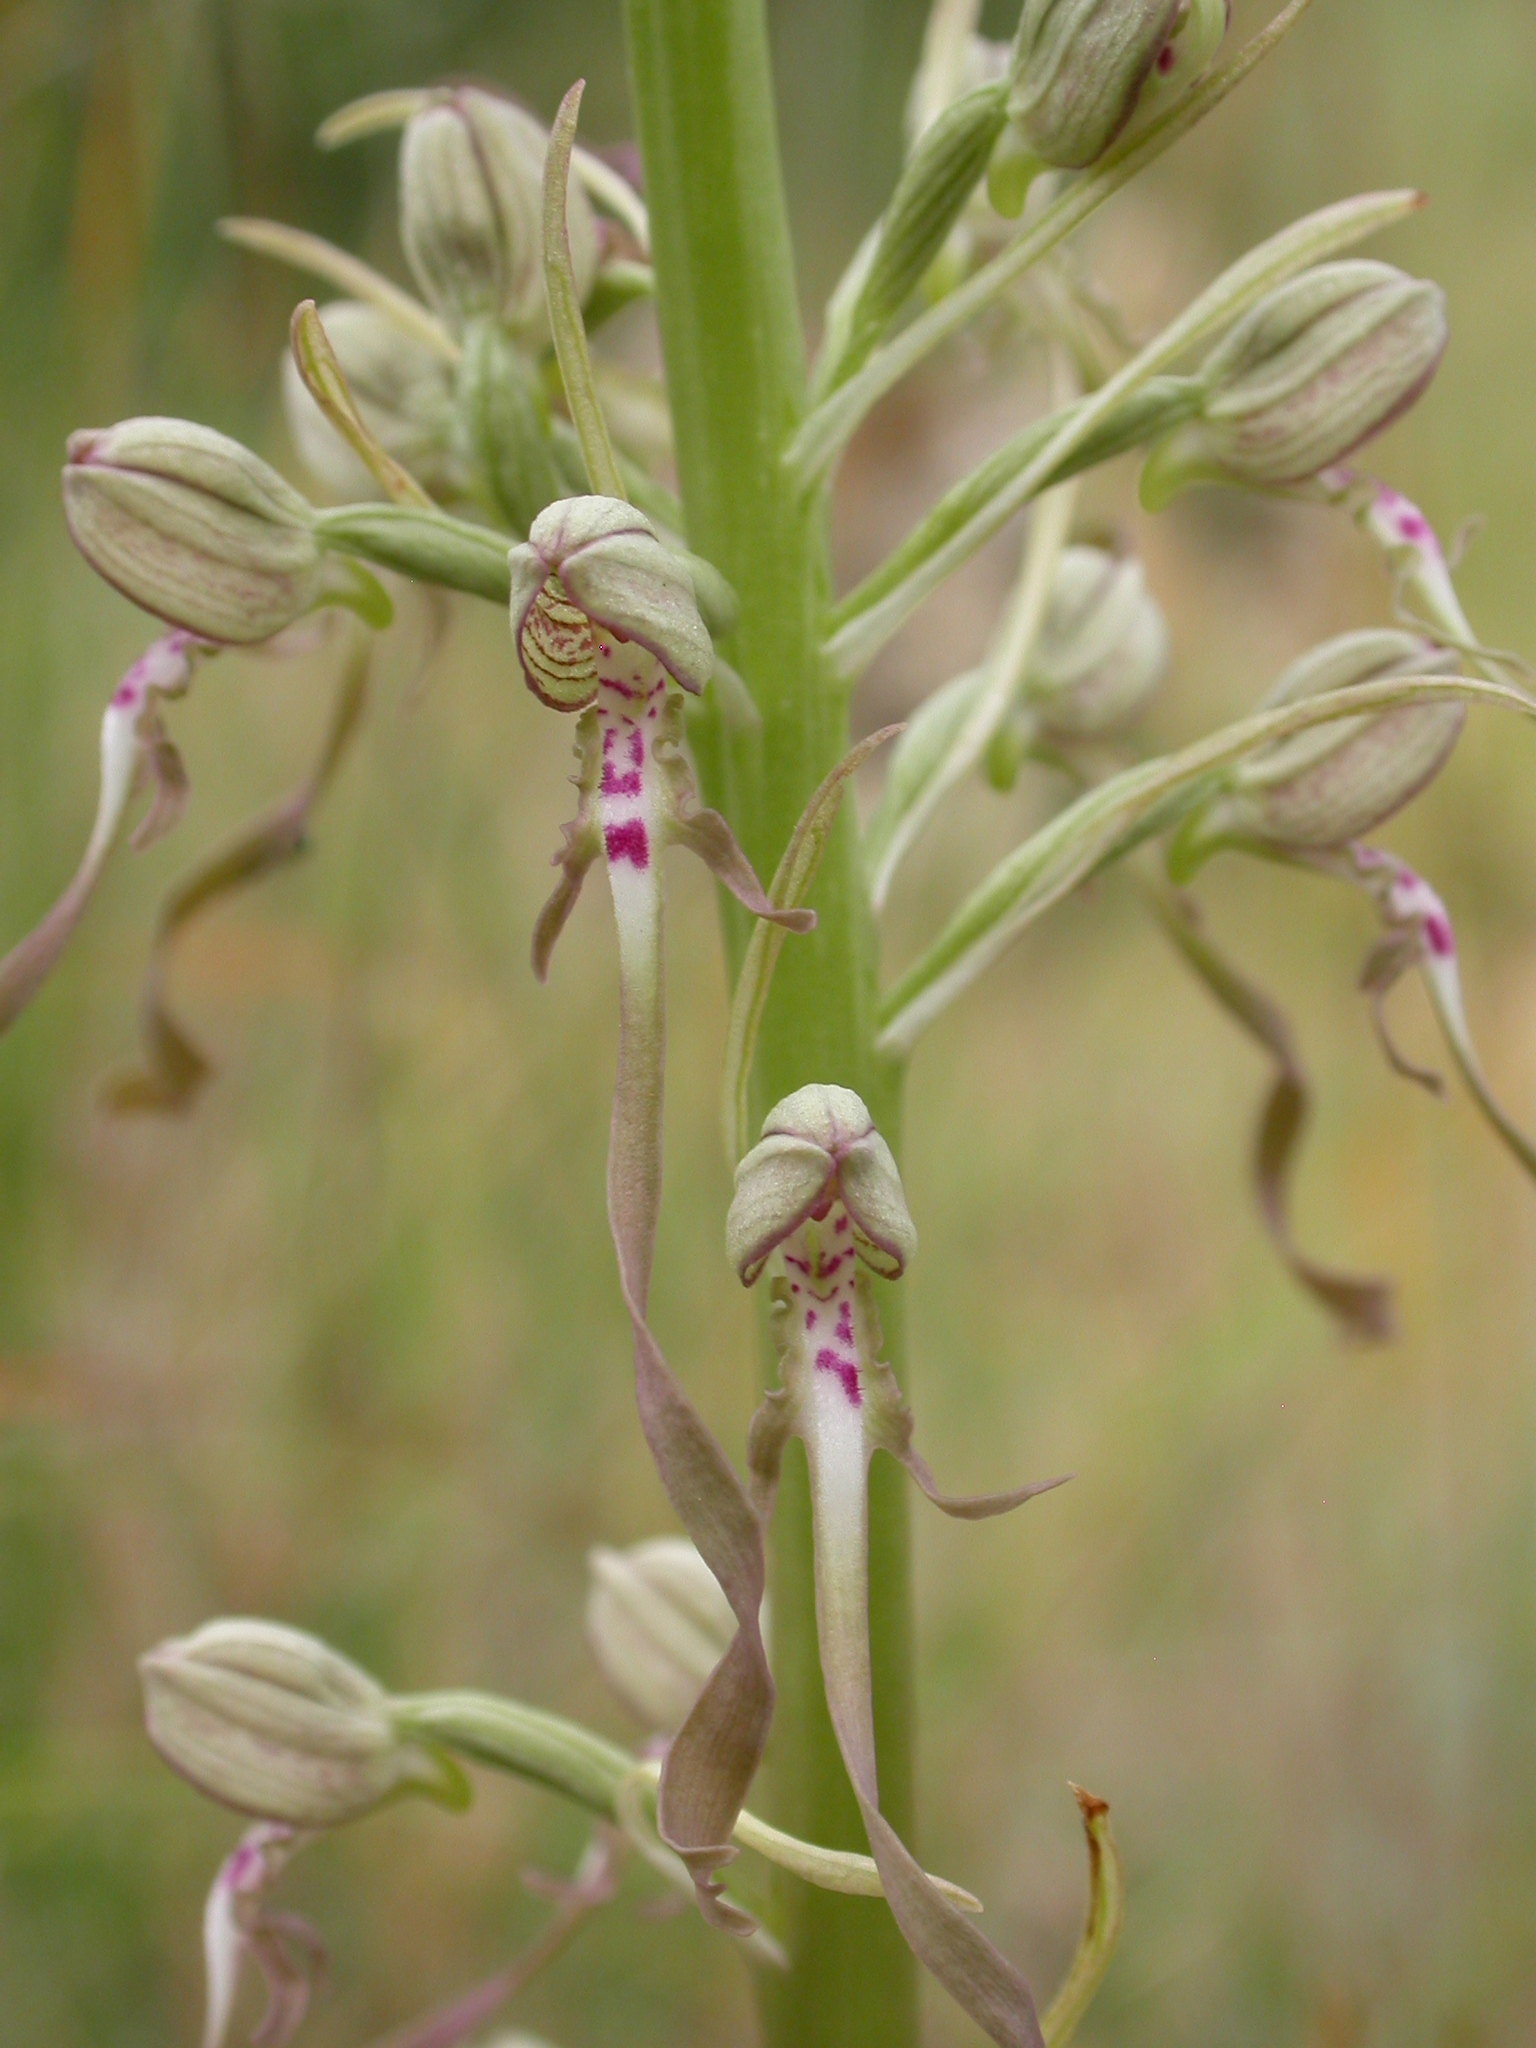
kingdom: Plantae
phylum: Tracheophyta
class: Liliopsida
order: Asparagales
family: Orchidaceae
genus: Himantoglossum
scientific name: Himantoglossum hircinum
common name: Lizard orchid
